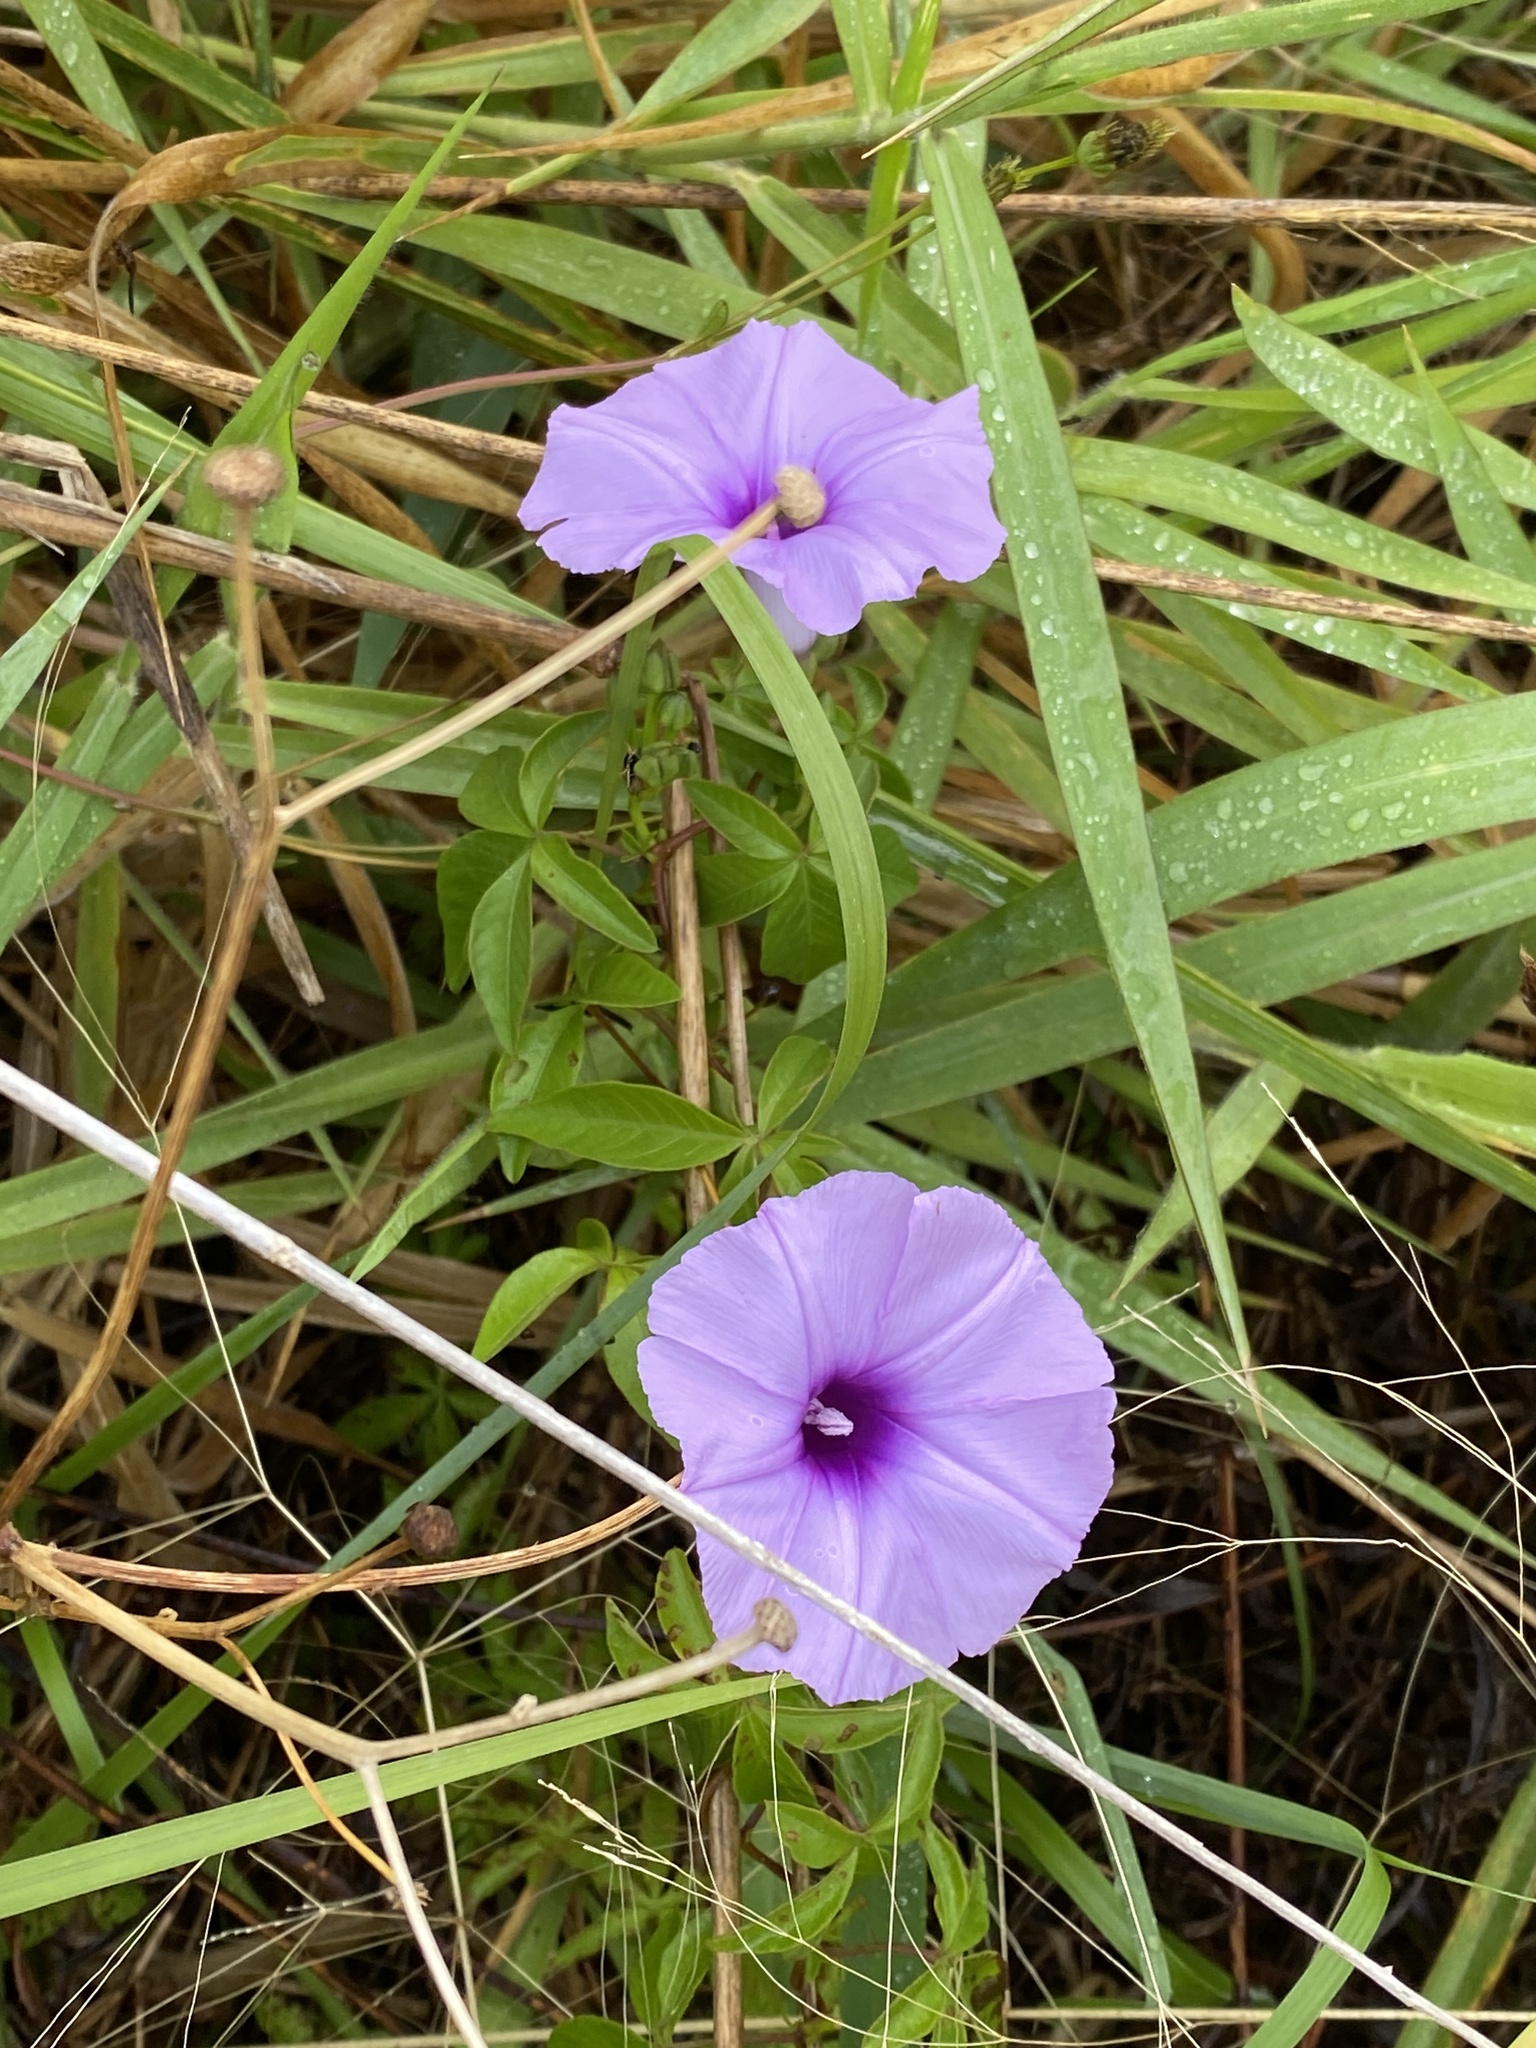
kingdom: Plantae
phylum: Tracheophyta
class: Magnoliopsida
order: Solanales
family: Convolvulaceae
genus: Ipomoea
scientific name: Ipomoea cairica
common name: Mile a minute vine
